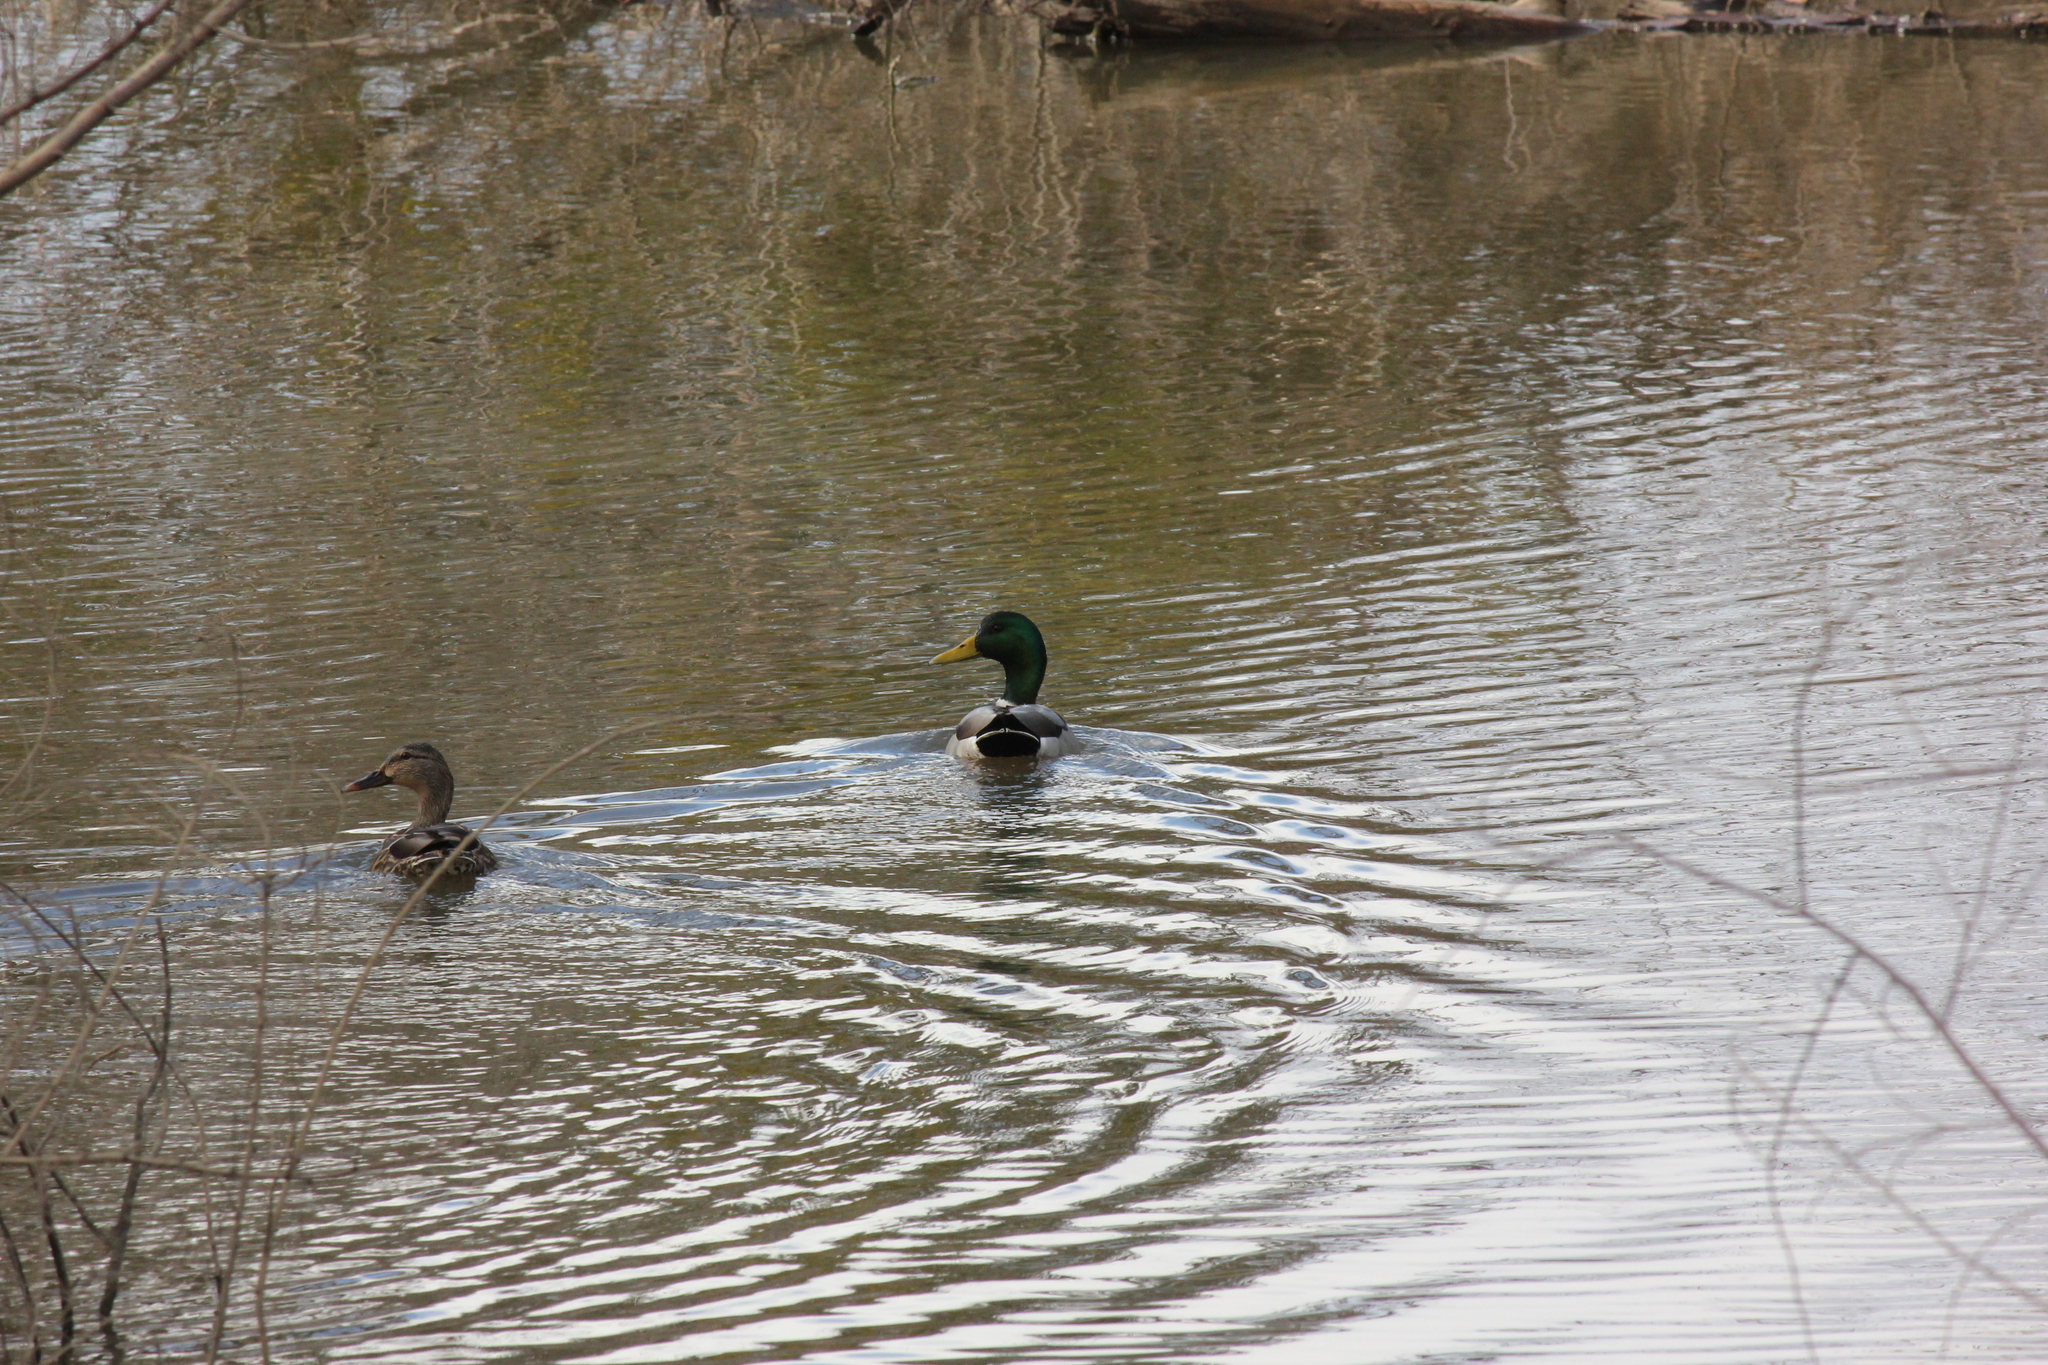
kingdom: Animalia
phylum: Chordata
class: Aves
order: Anseriformes
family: Anatidae
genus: Anas
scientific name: Anas platyrhynchos
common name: Mallard
